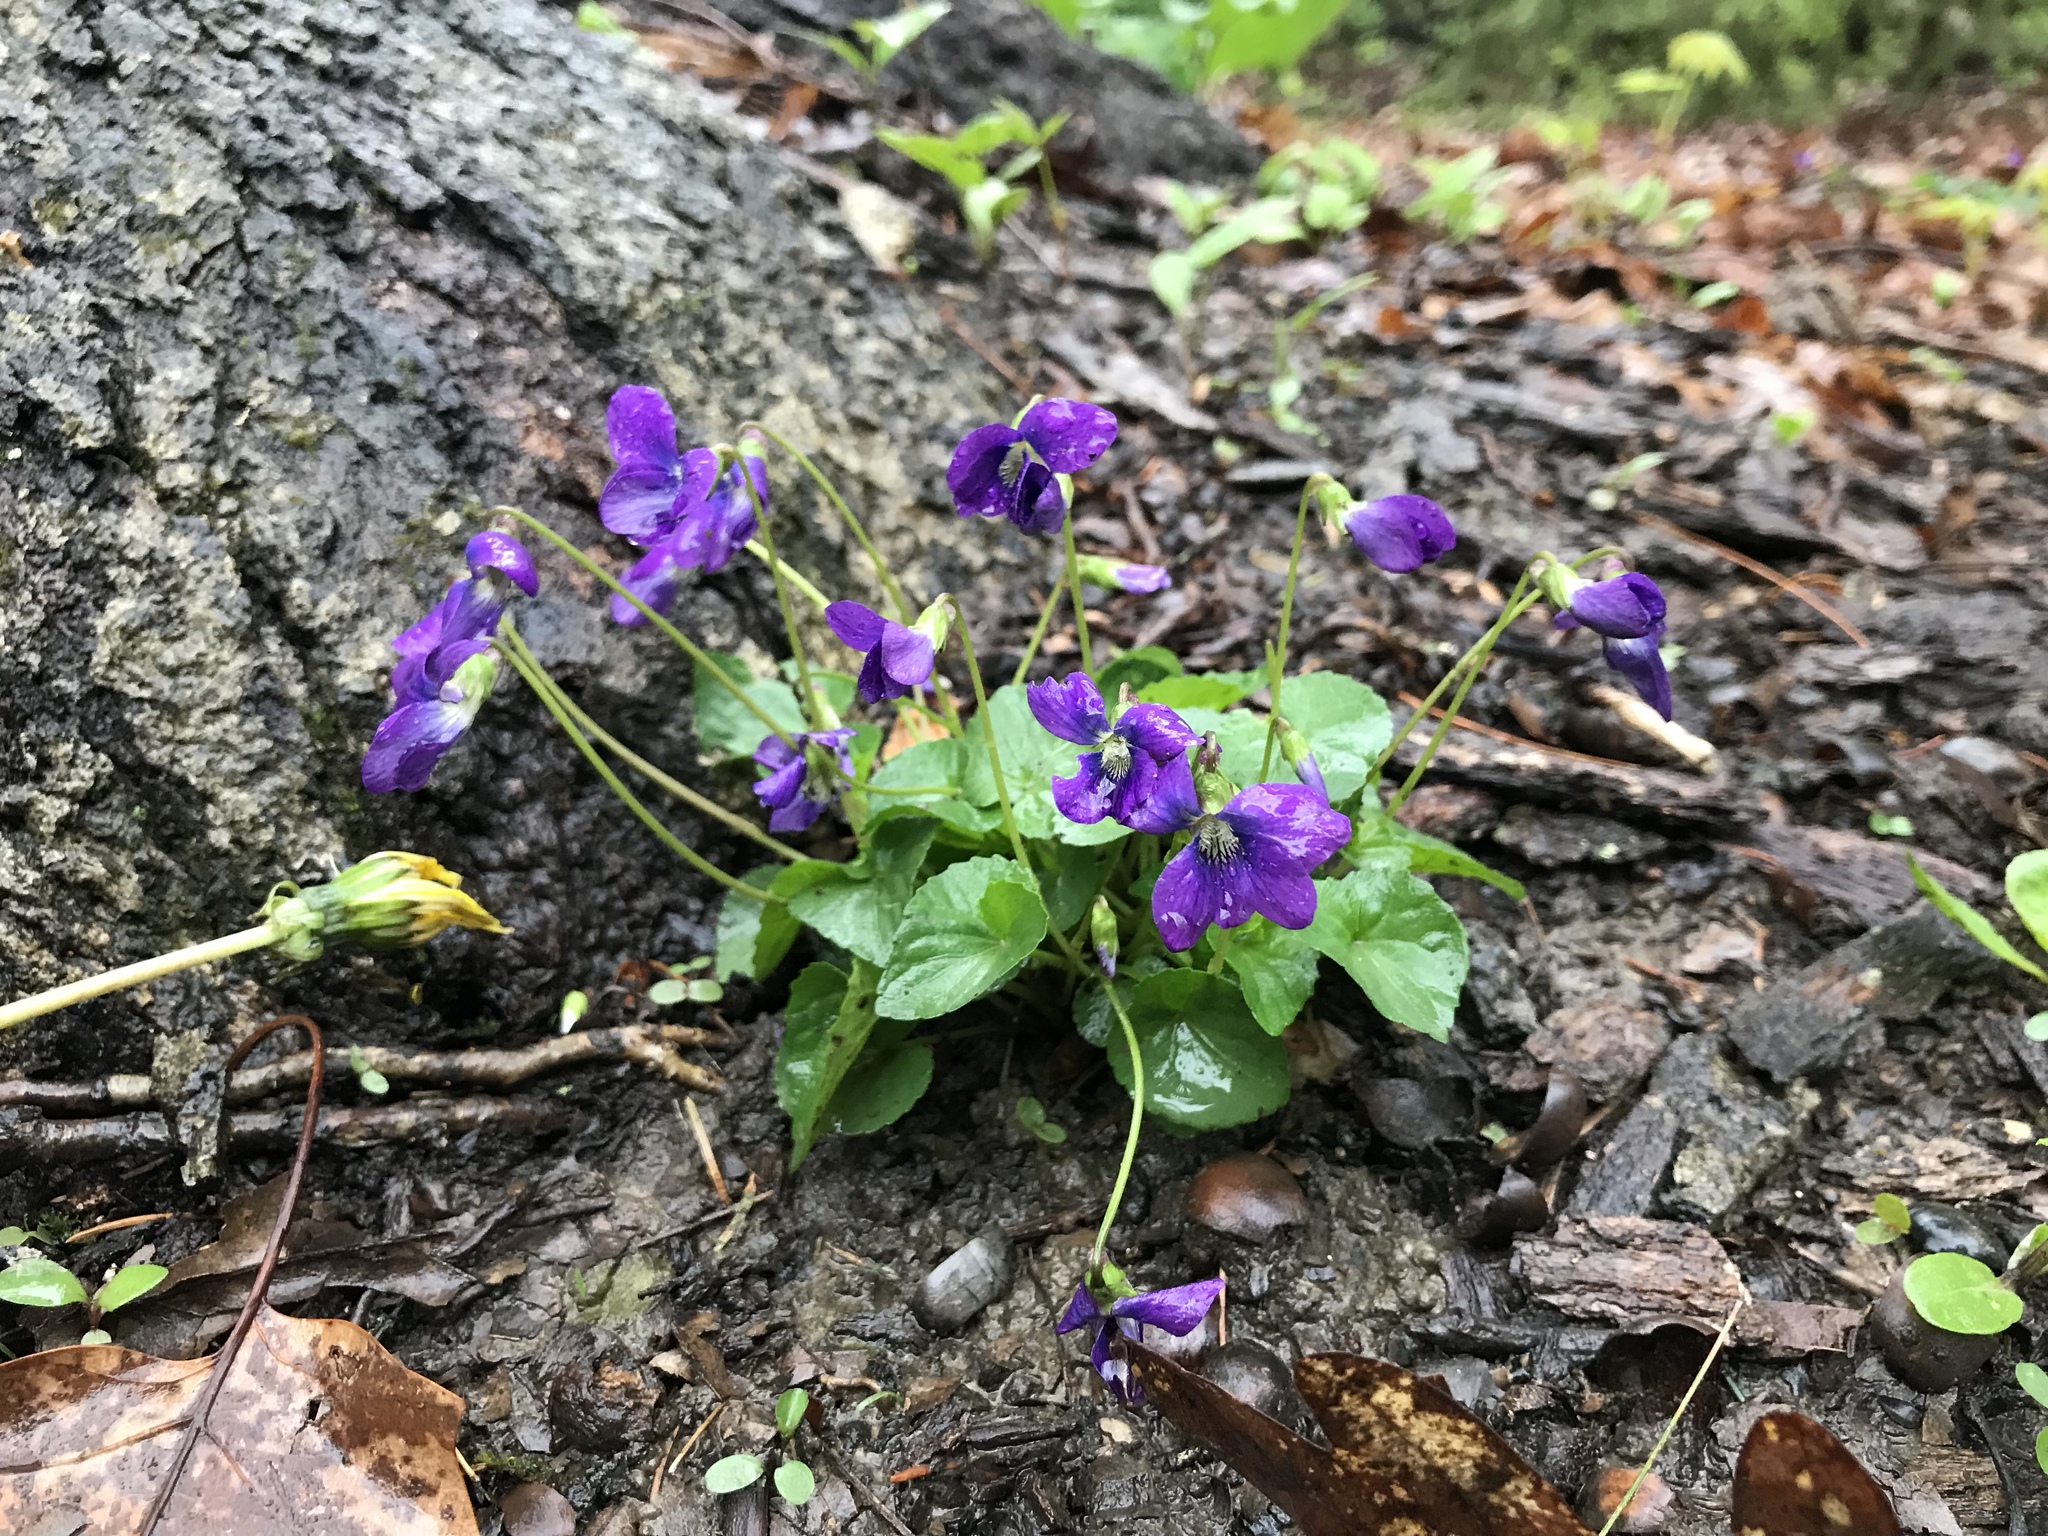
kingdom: Plantae
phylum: Tracheophyta
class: Magnoliopsida
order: Malpighiales
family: Violaceae
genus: Viola
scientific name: Viola sororia
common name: Dooryard violet
